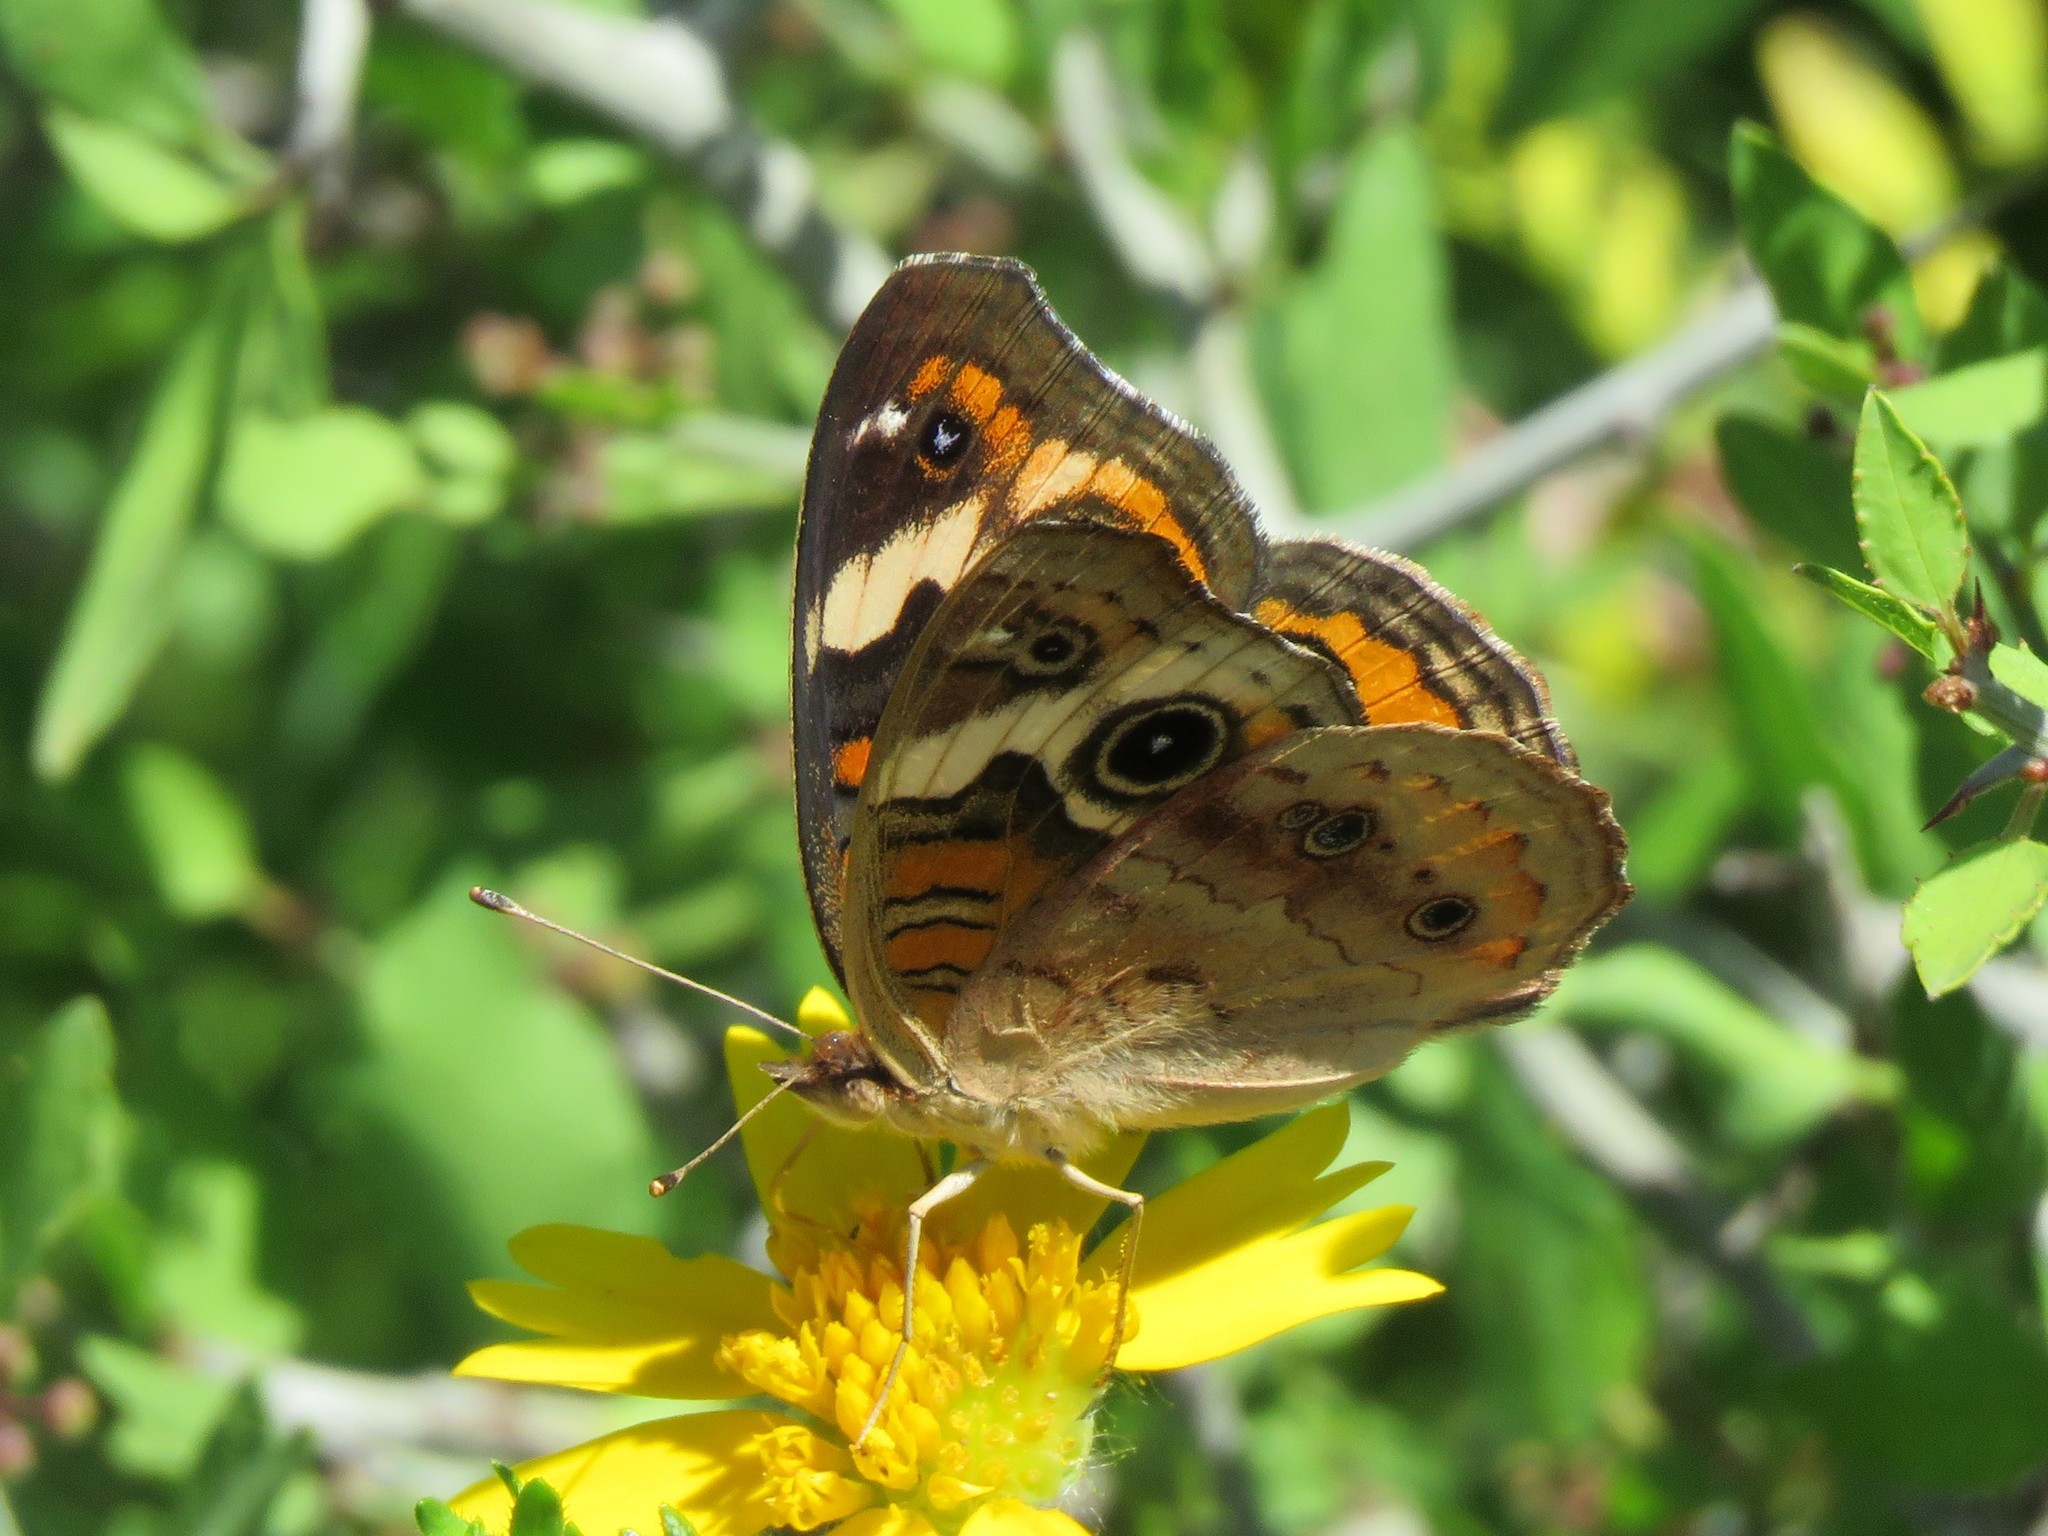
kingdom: Animalia
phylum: Arthropoda
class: Insecta
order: Lepidoptera
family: Nymphalidae
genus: Junonia
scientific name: Junonia coenia
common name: Common buckeye
